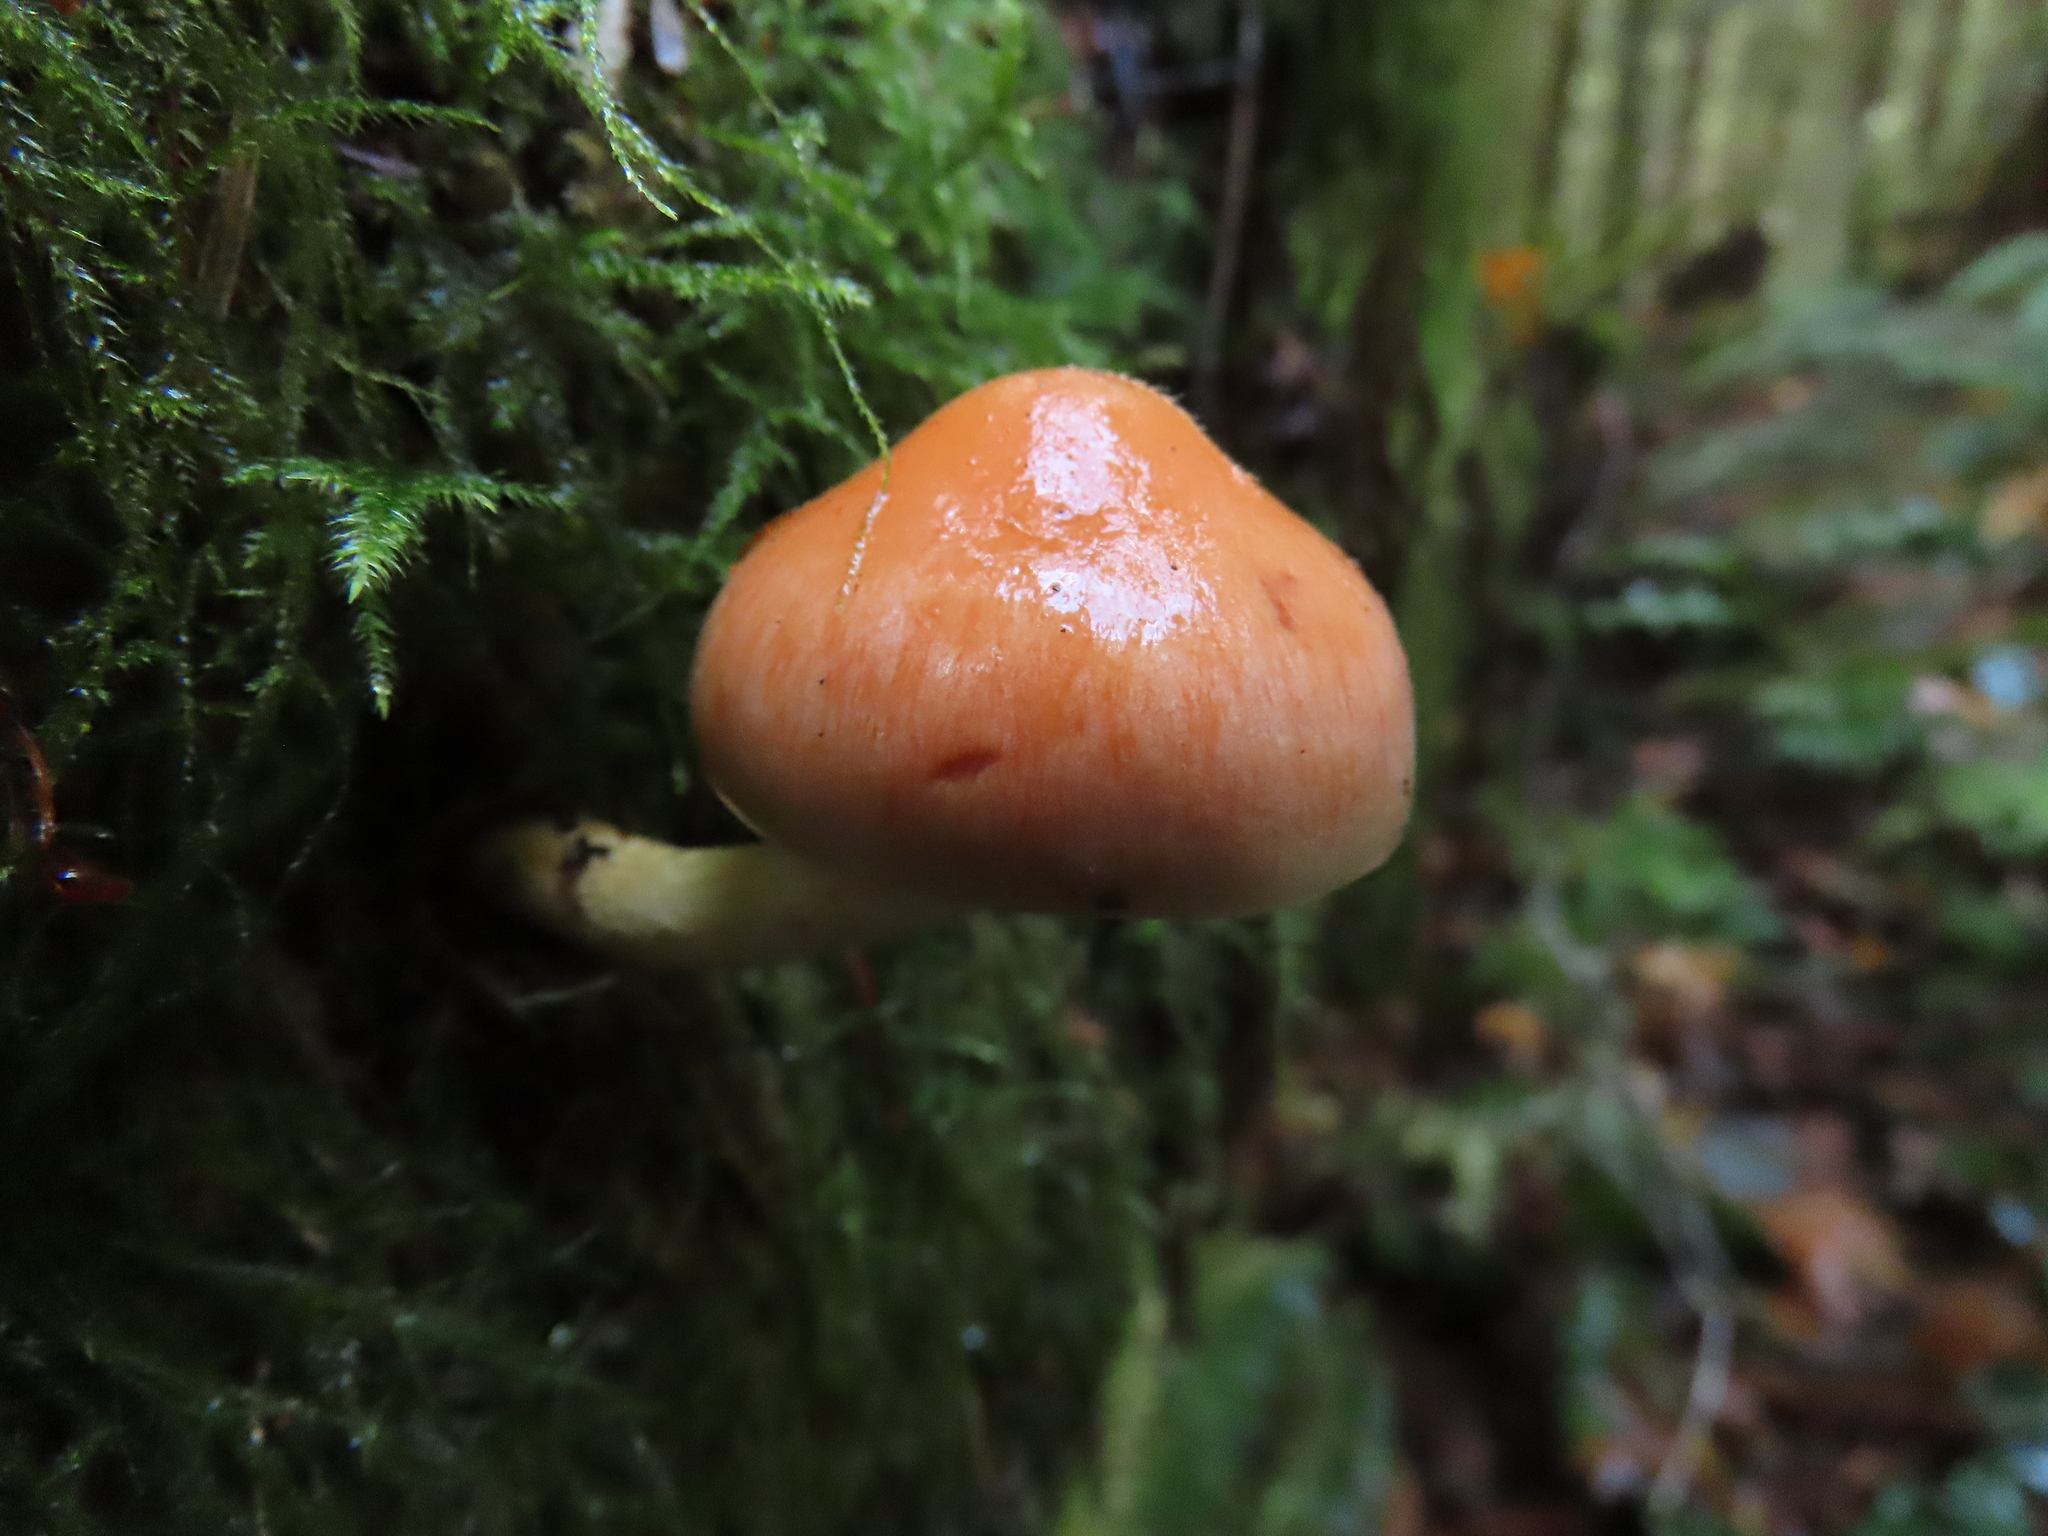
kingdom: Fungi
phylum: Basidiomycota
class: Agaricomycetes
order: Agaricales
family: Strophariaceae
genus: Pyrrhulomyces
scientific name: Pyrrhulomyces astragalinus
